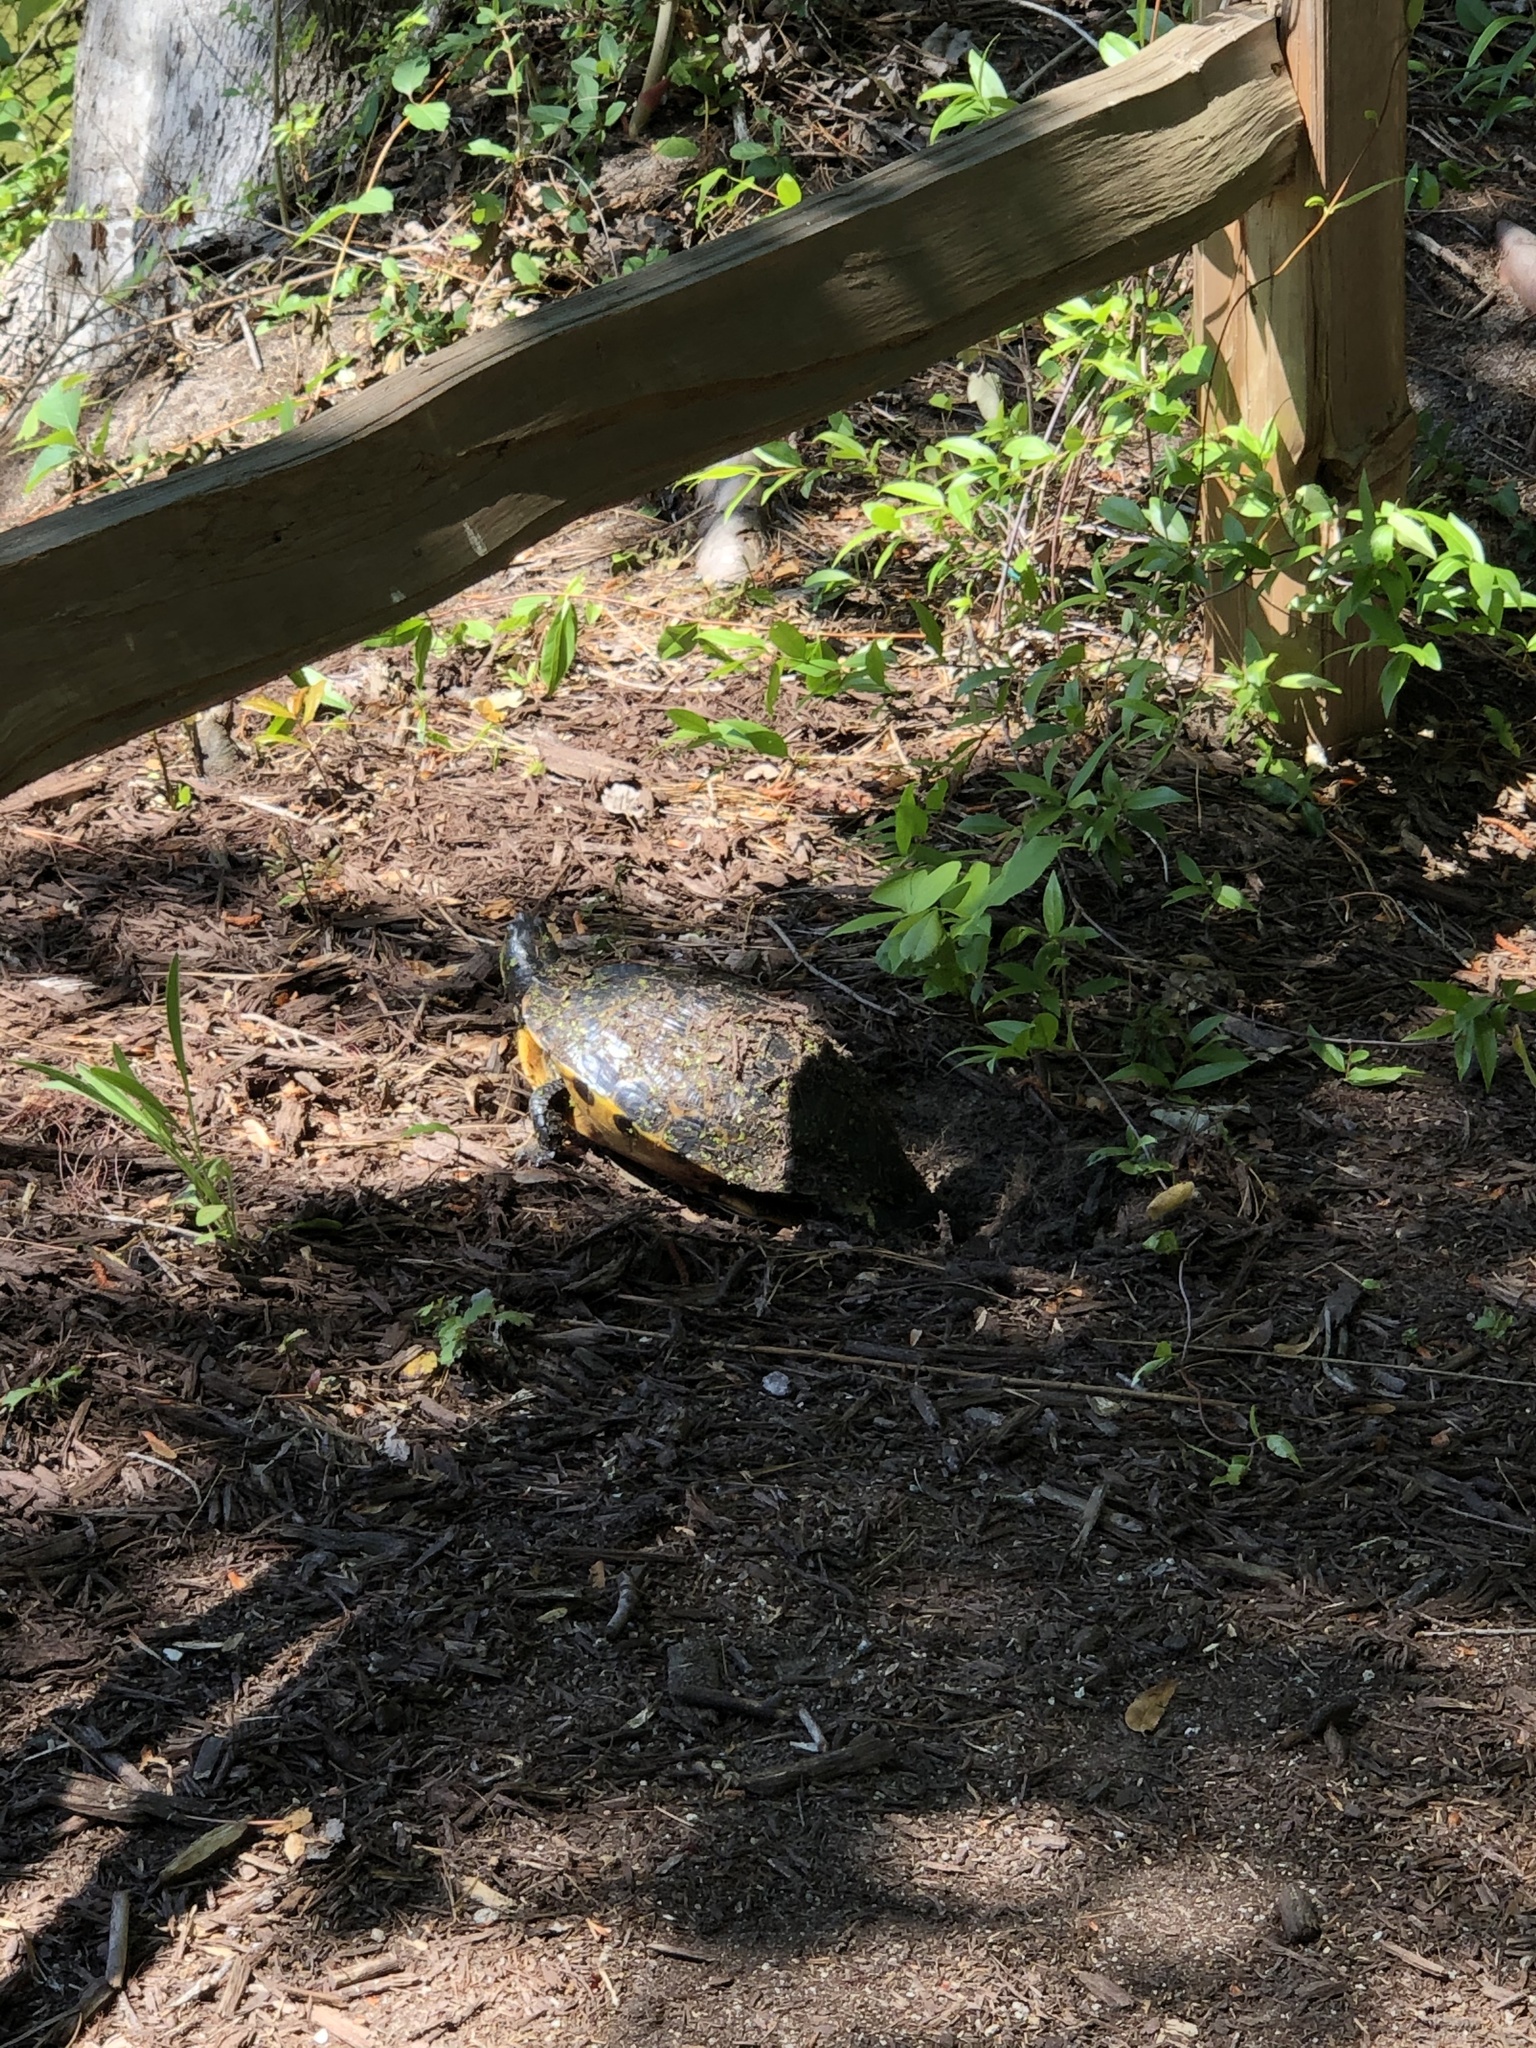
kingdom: Animalia
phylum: Chordata
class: Testudines
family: Emydidae
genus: Trachemys
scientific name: Trachemys scripta
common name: Slider
